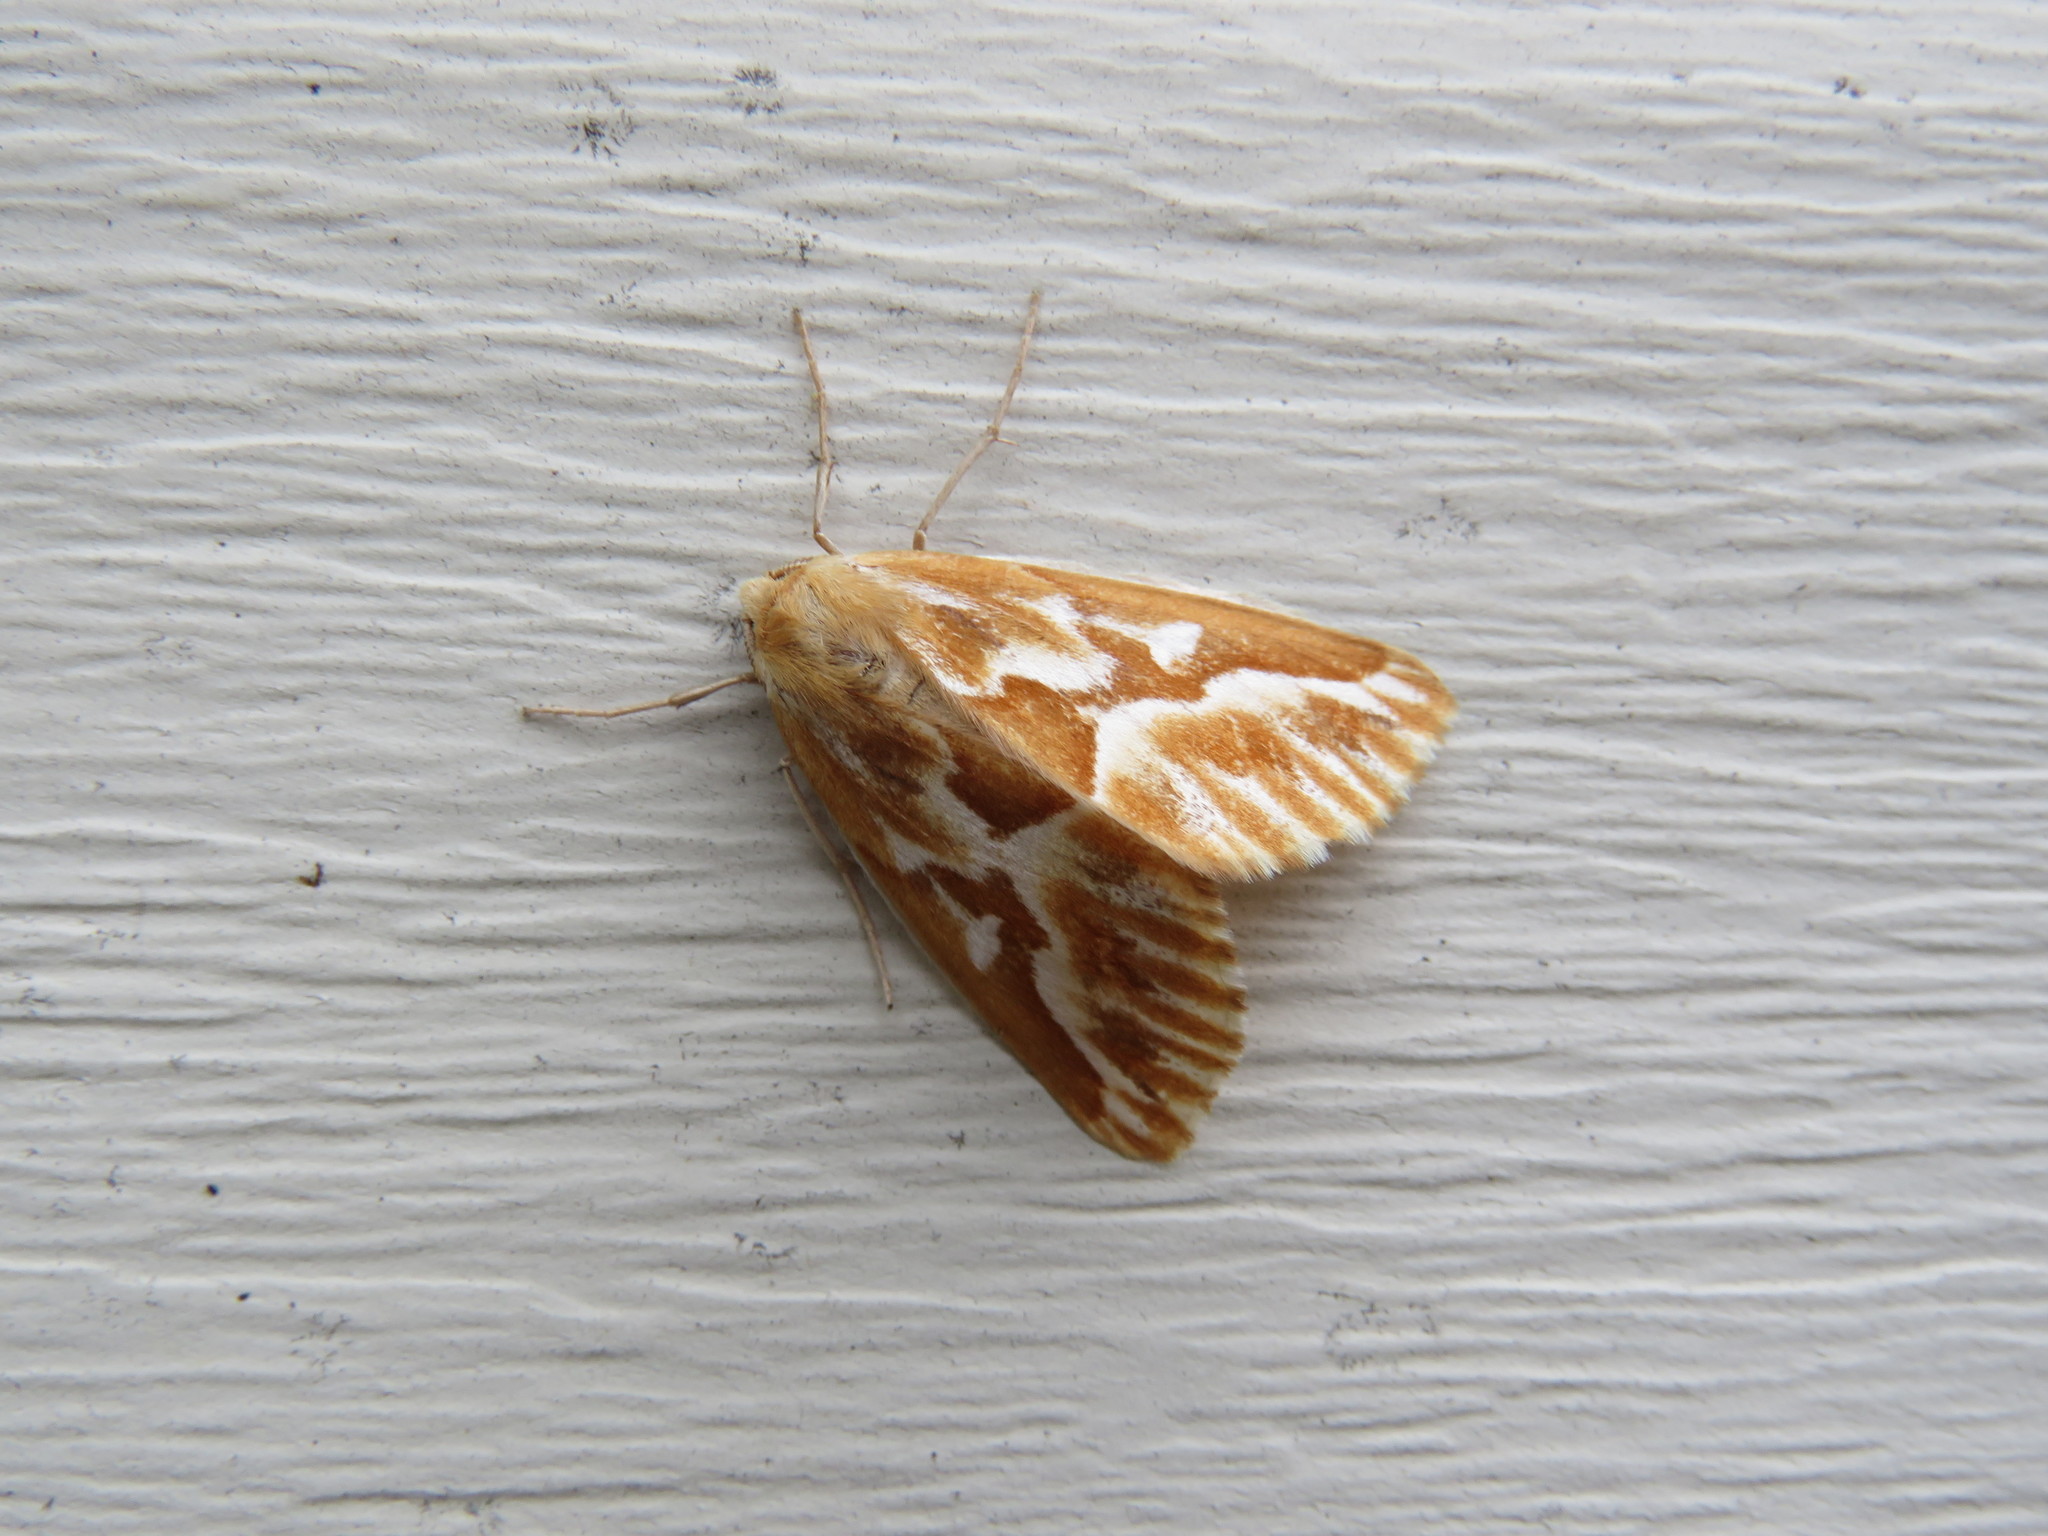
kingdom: Animalia
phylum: Arthropoda
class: Insecta
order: Lepidoptera
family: Geometridae
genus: Caripeta
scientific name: Caripeta piniata
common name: Northern pine looper moth
